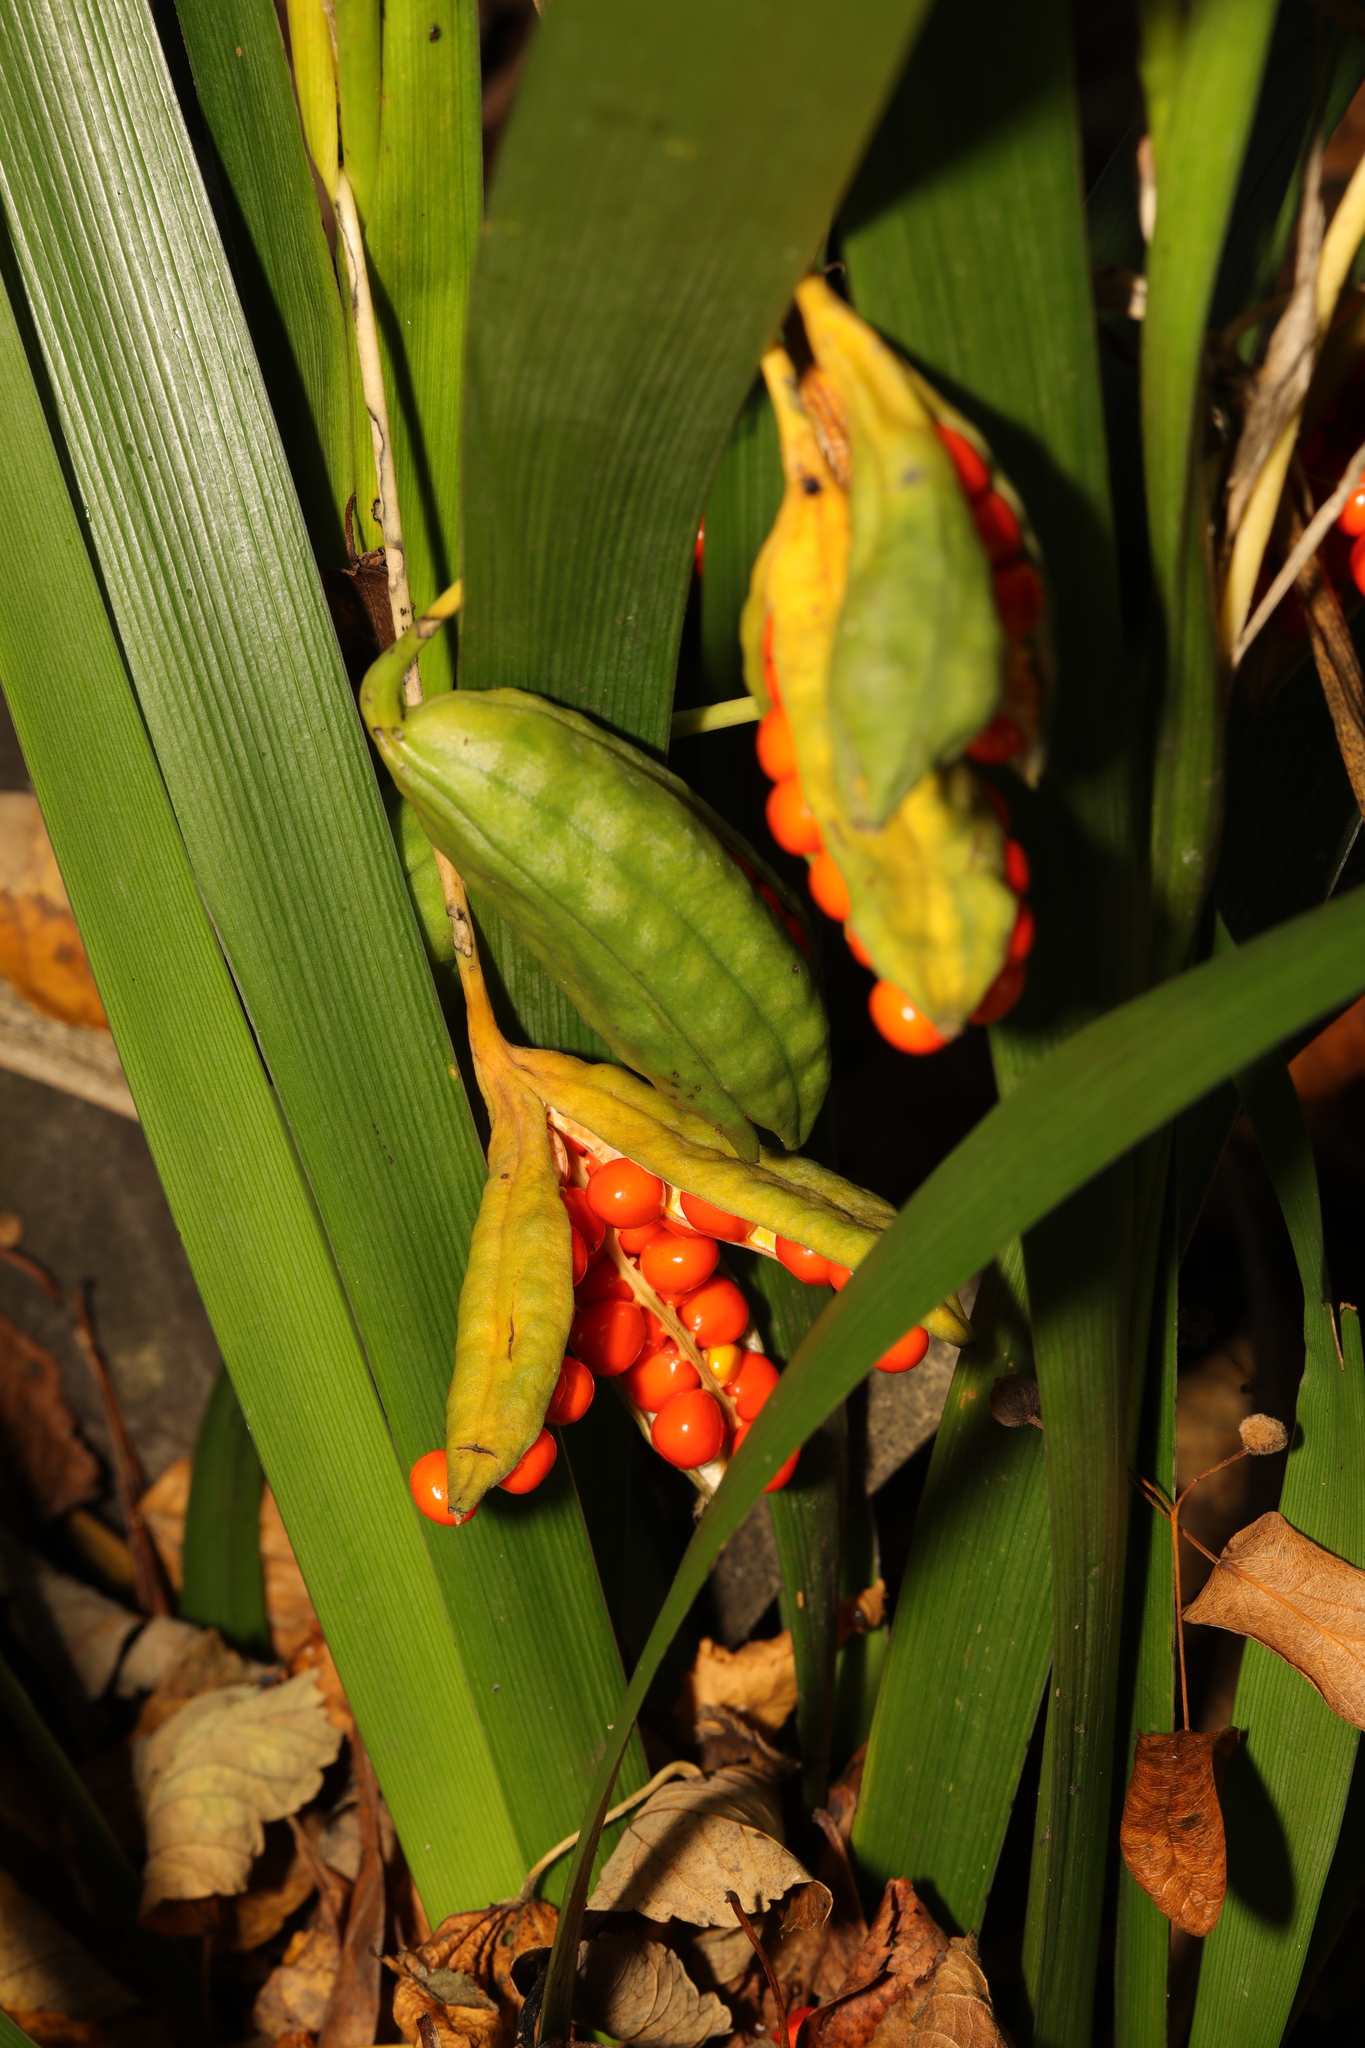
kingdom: Plantae
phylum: Tracheophyta
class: Liliopsida
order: Asparagales
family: Iridaceae
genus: Iris
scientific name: Iris foetidissima
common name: Stinking iris
